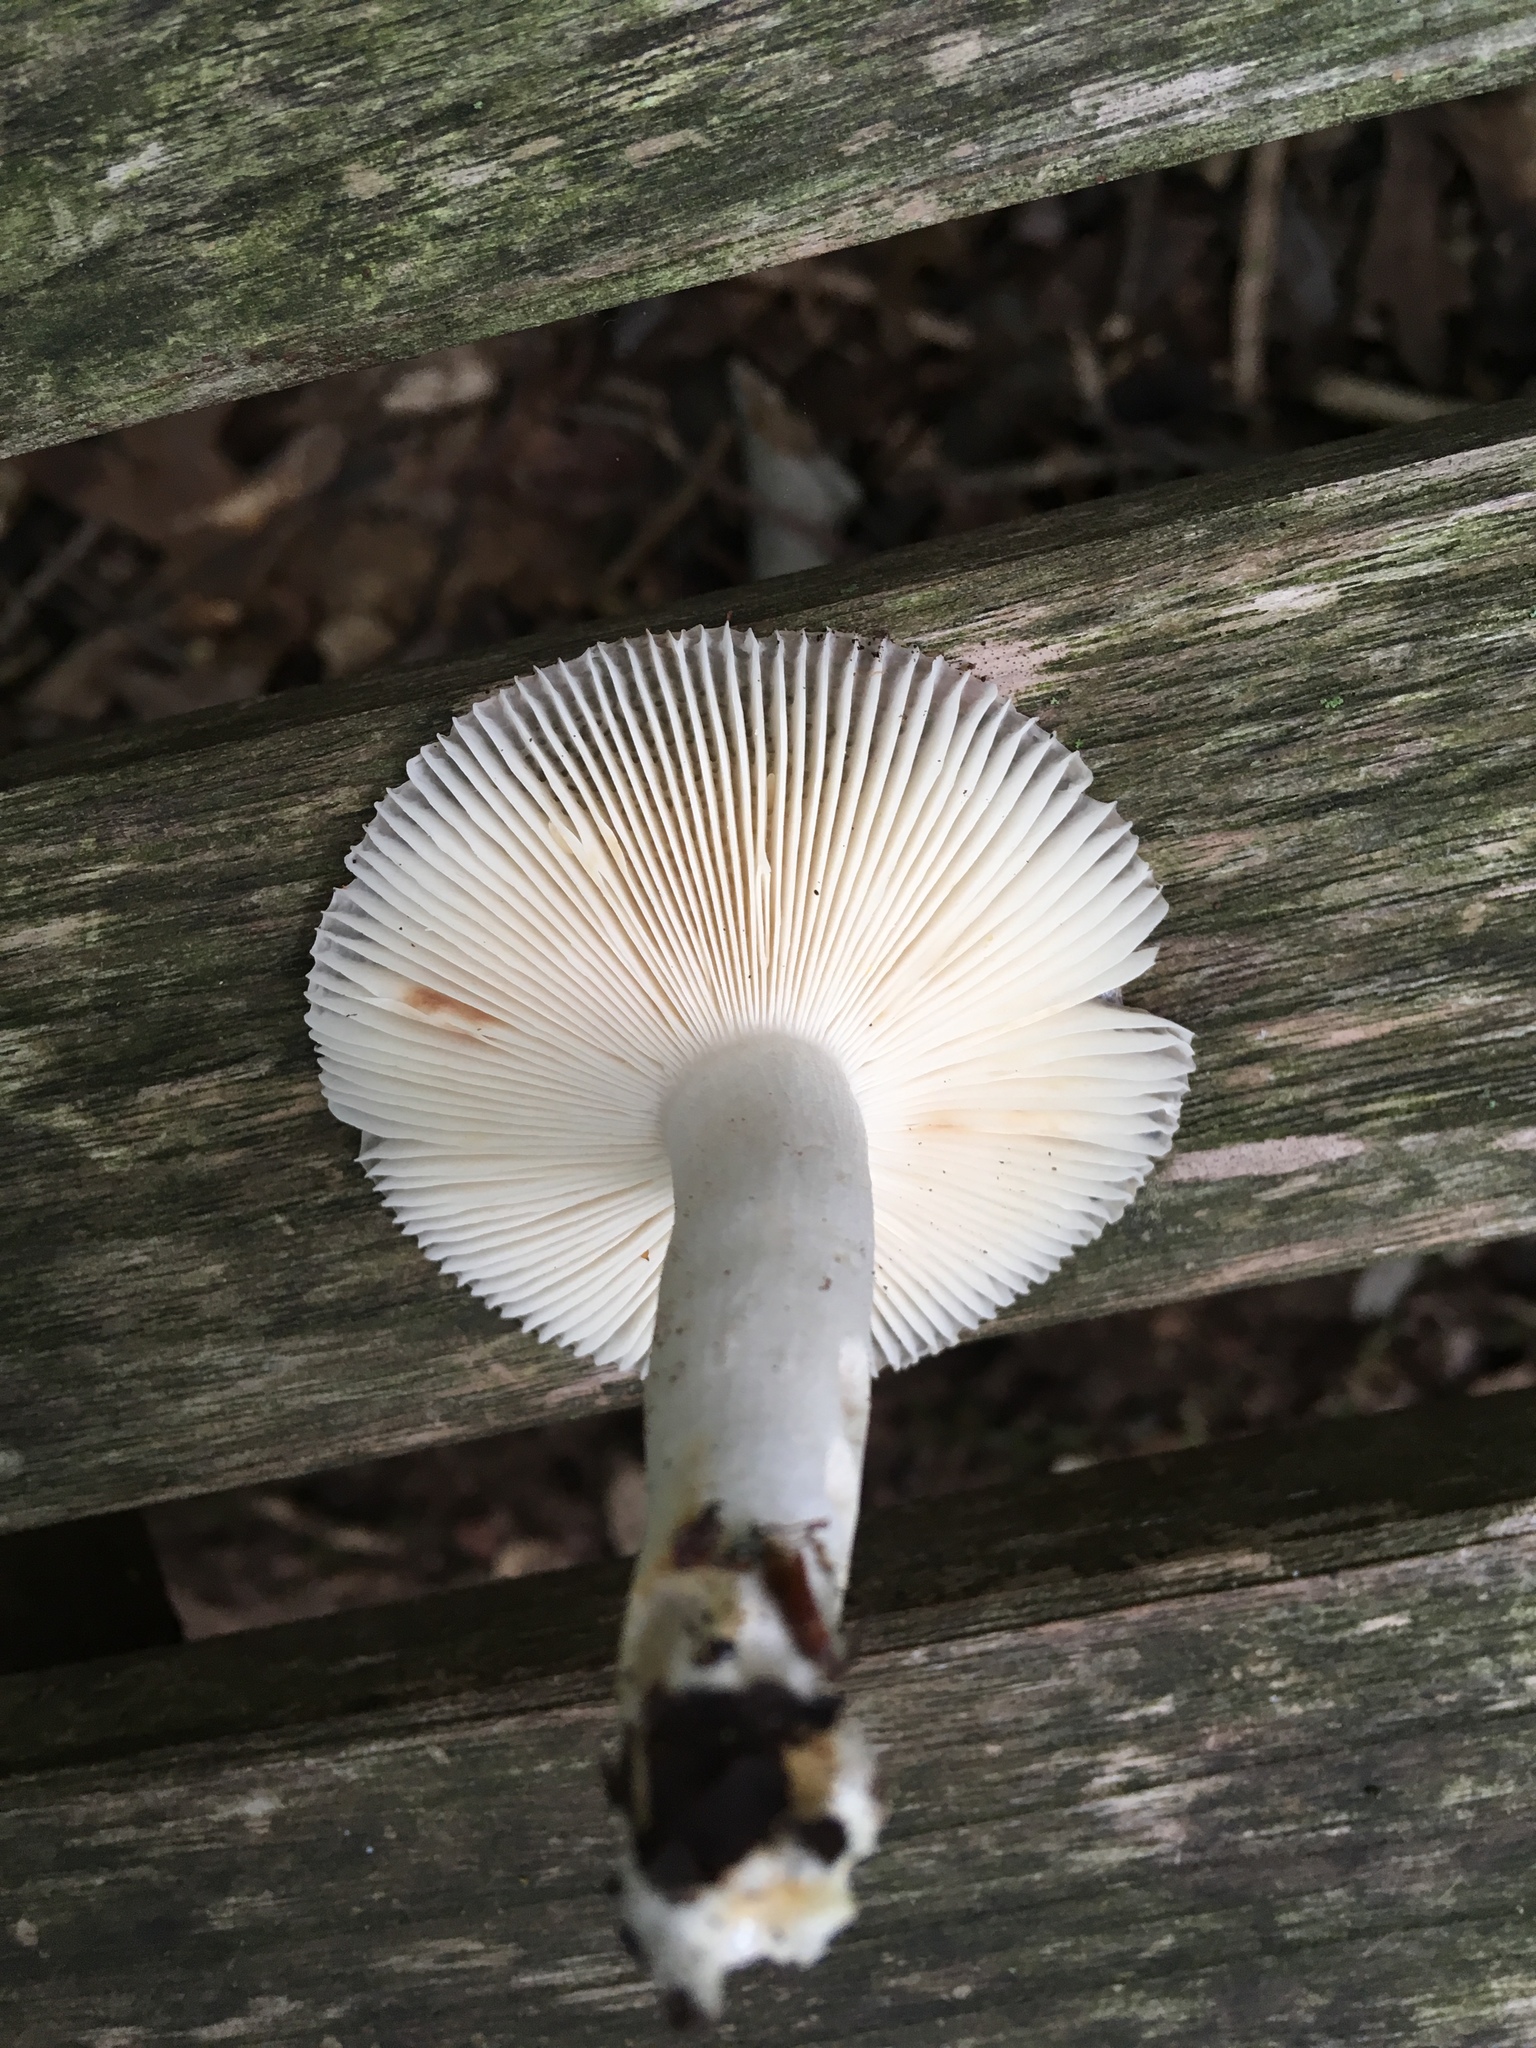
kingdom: Fungi
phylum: Basidiomycota
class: Agaricomycetes
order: Russulales
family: Russulaceae
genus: Russula
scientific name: Russula pectinatoides
